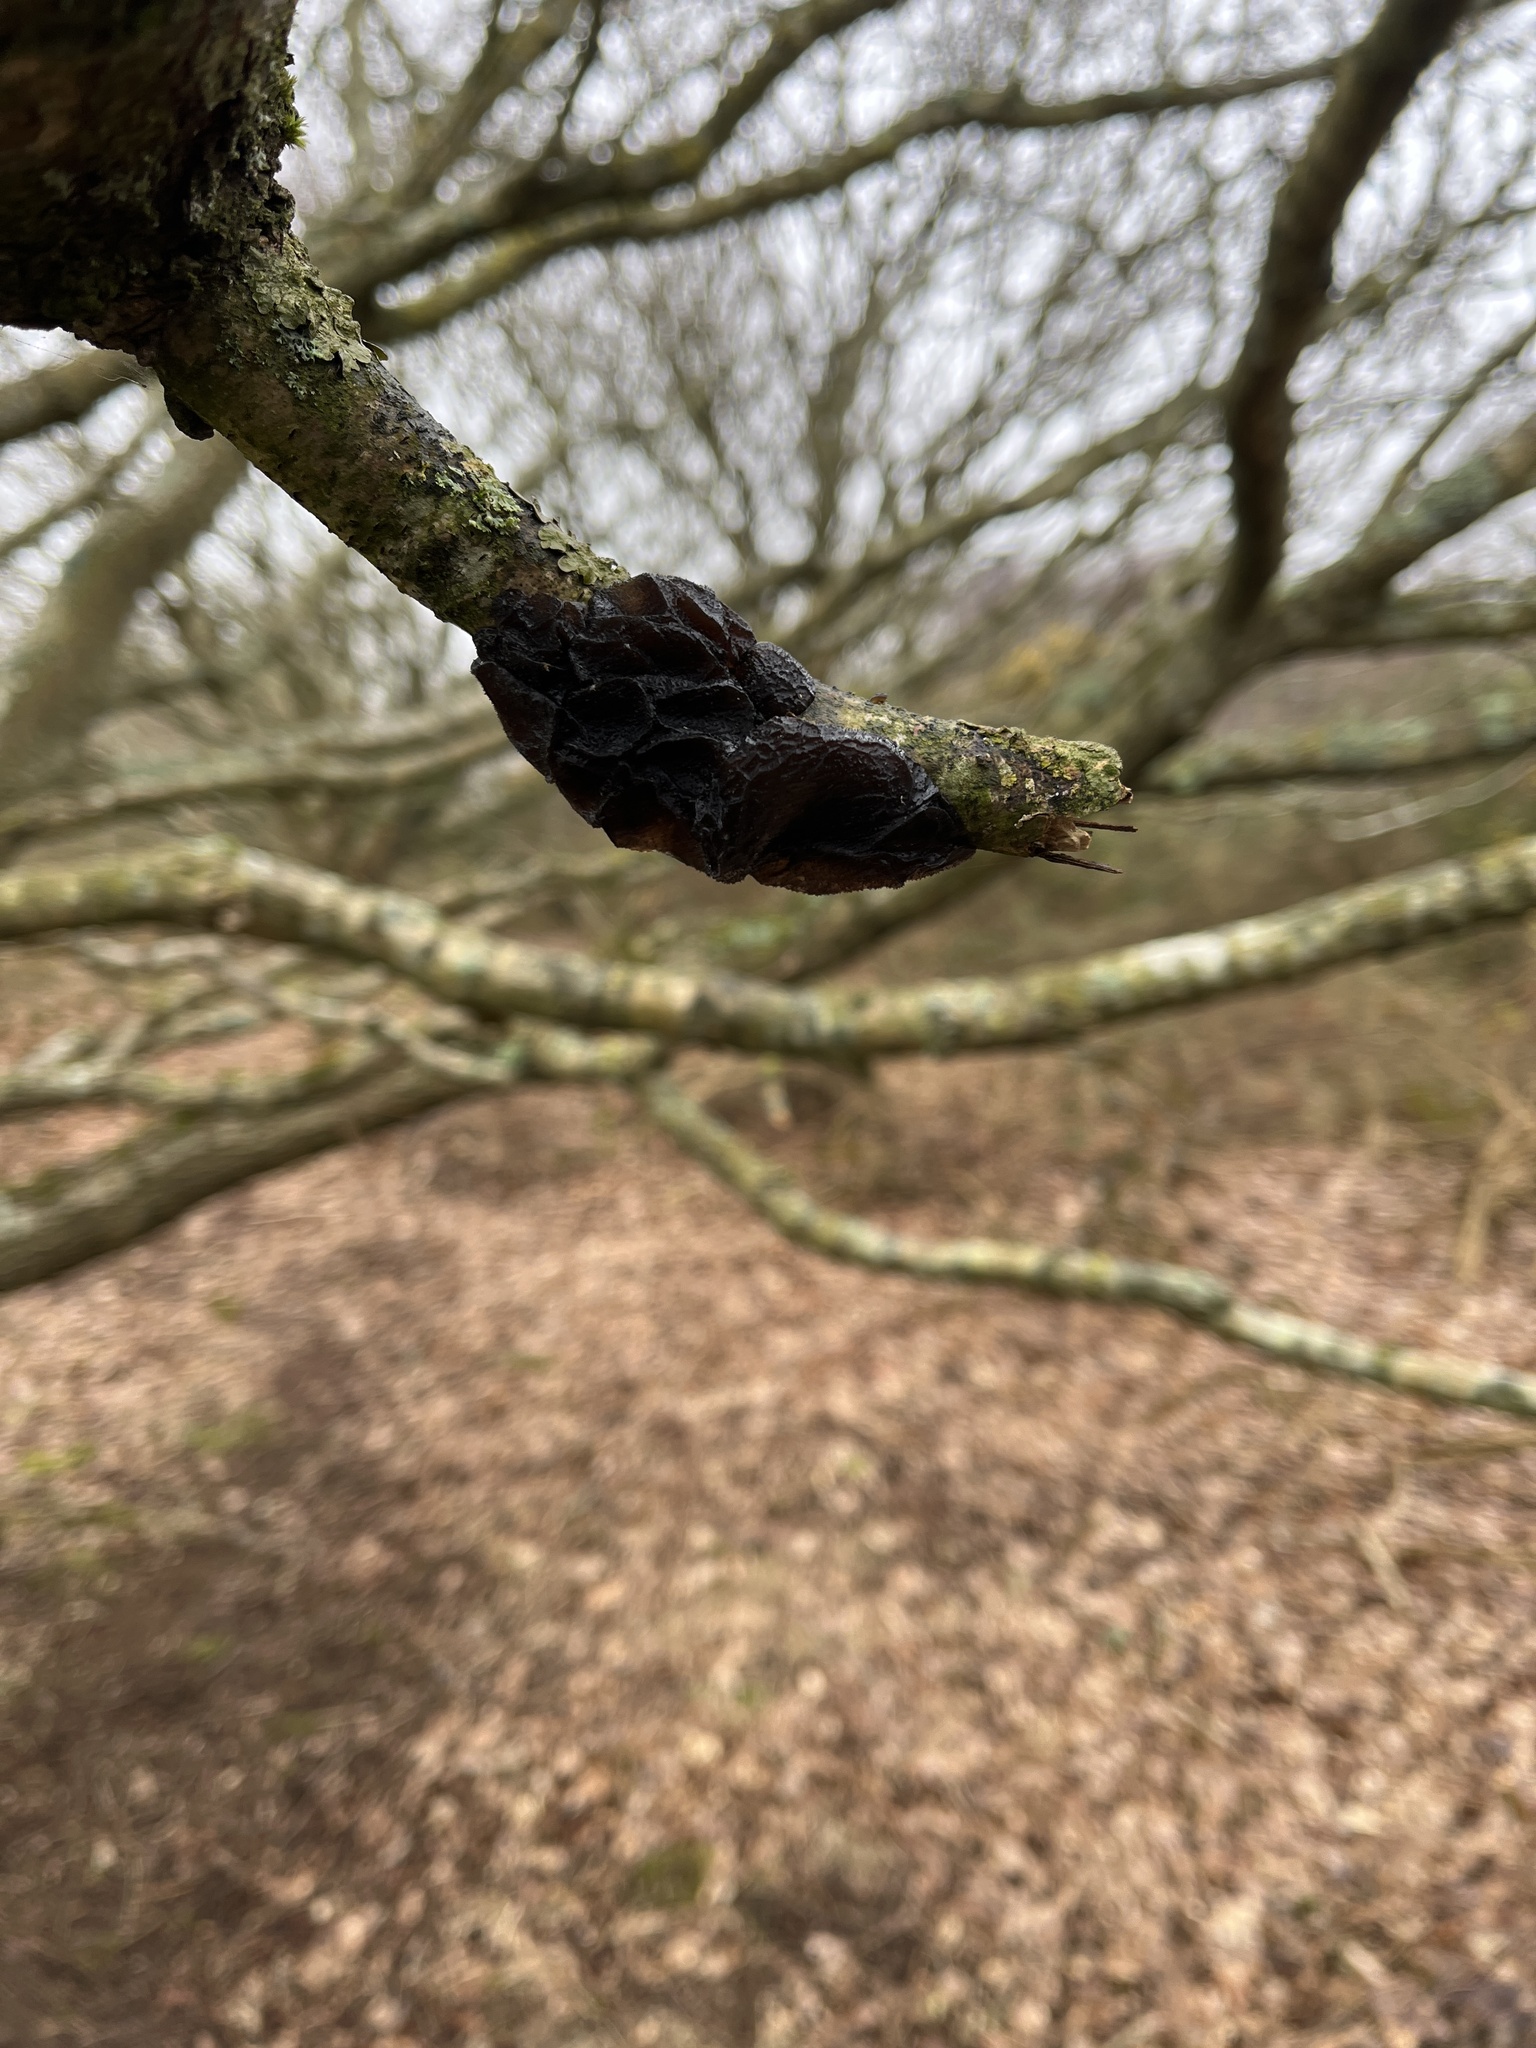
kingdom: Fungi
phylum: Basidiomycota
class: Agaricomycetes
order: Auriculariales
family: Auriculariaceae
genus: Exidia
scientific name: Exidia glandulosa
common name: Witches' butter
